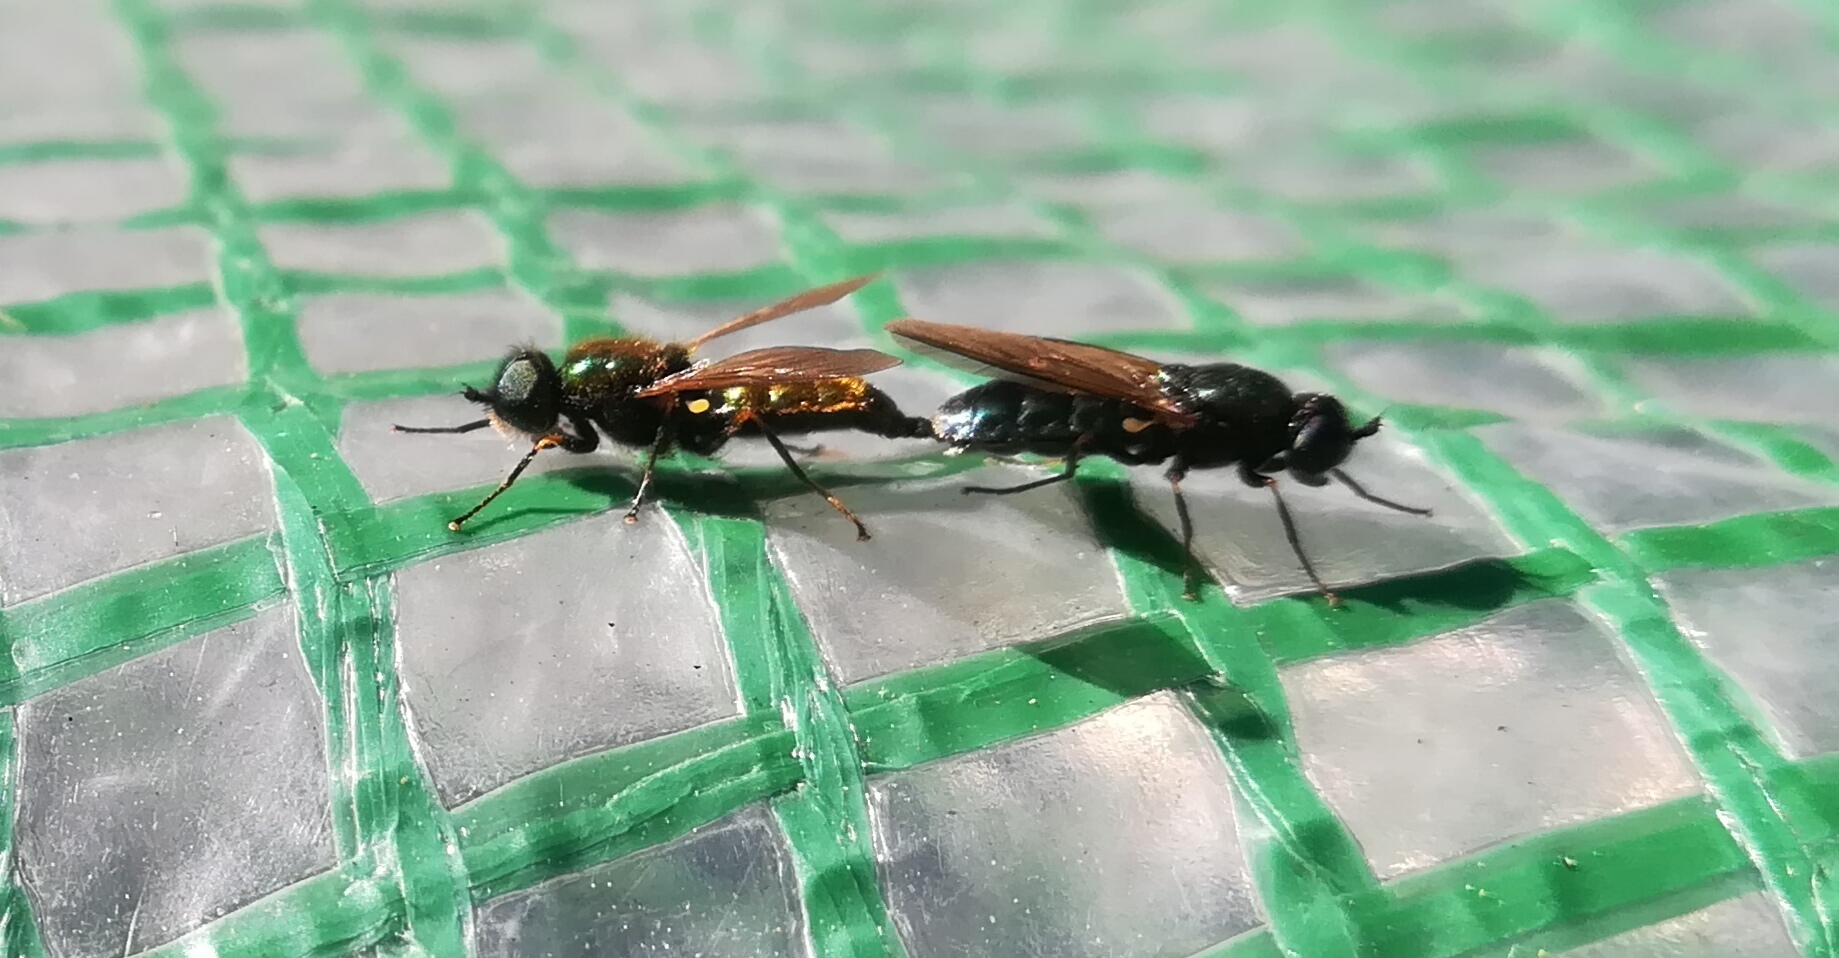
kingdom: Animalia
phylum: Arthropoda
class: Insecta
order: Diptera
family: Stratiomyidae
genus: Chloromyia
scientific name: Chloromyia formosa
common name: Soldier fly
